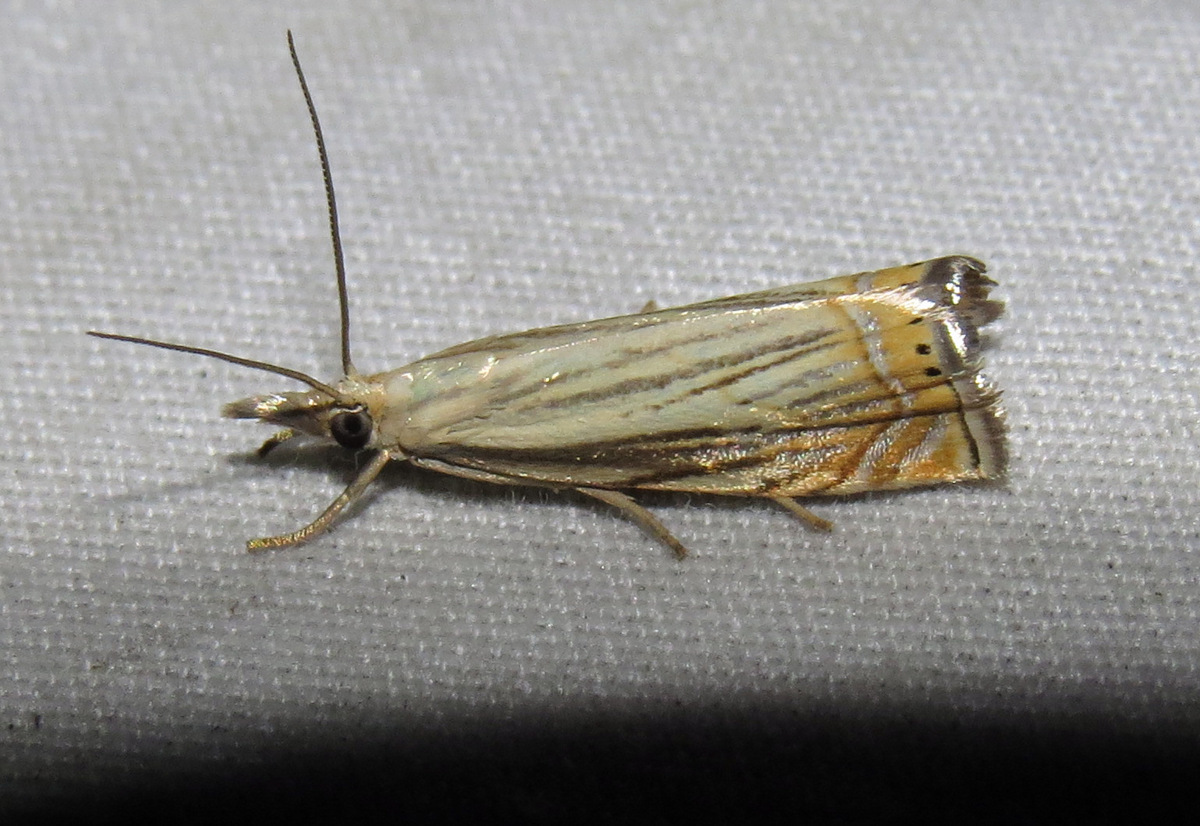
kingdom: Animalia
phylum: Arthropoda
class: Insecta
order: Lepidoptera
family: Crambidae
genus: Chrysoteuchia
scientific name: Chrysoteuchia topiarius
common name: Topiary grass-veneer
